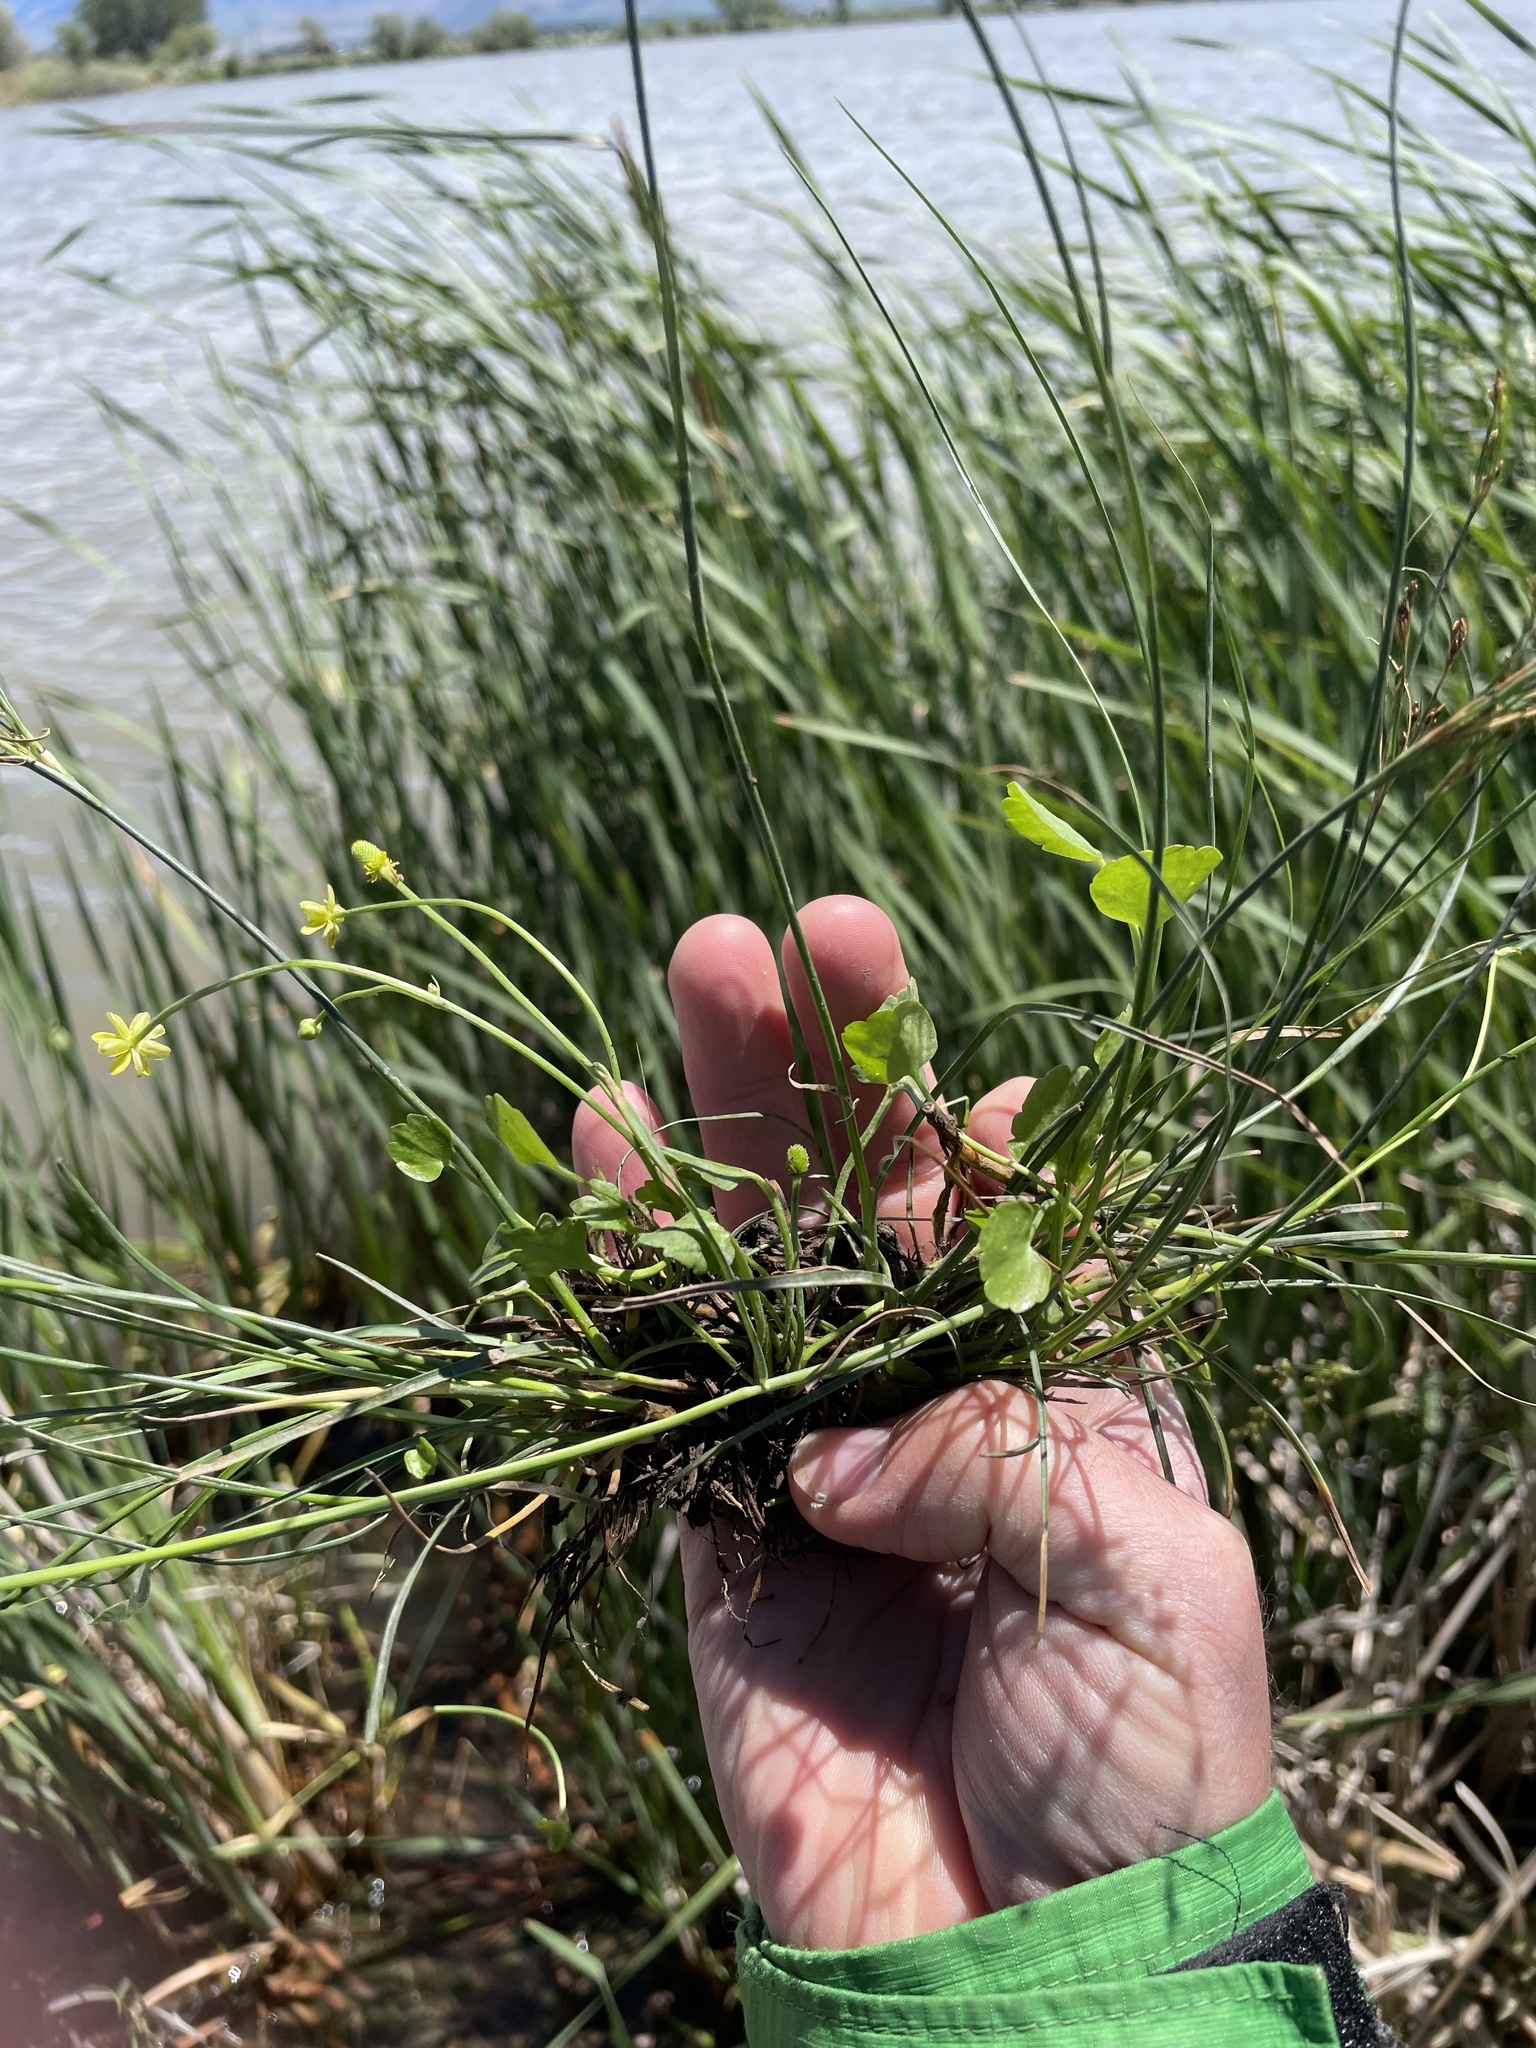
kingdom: Plantae
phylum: Tracheophyta
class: Magnoliopsida
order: Ranunculales
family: Ranunculaceae
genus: Halerpestes
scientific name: Halerpestes cymbalaria
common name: Seaside crowfoot
